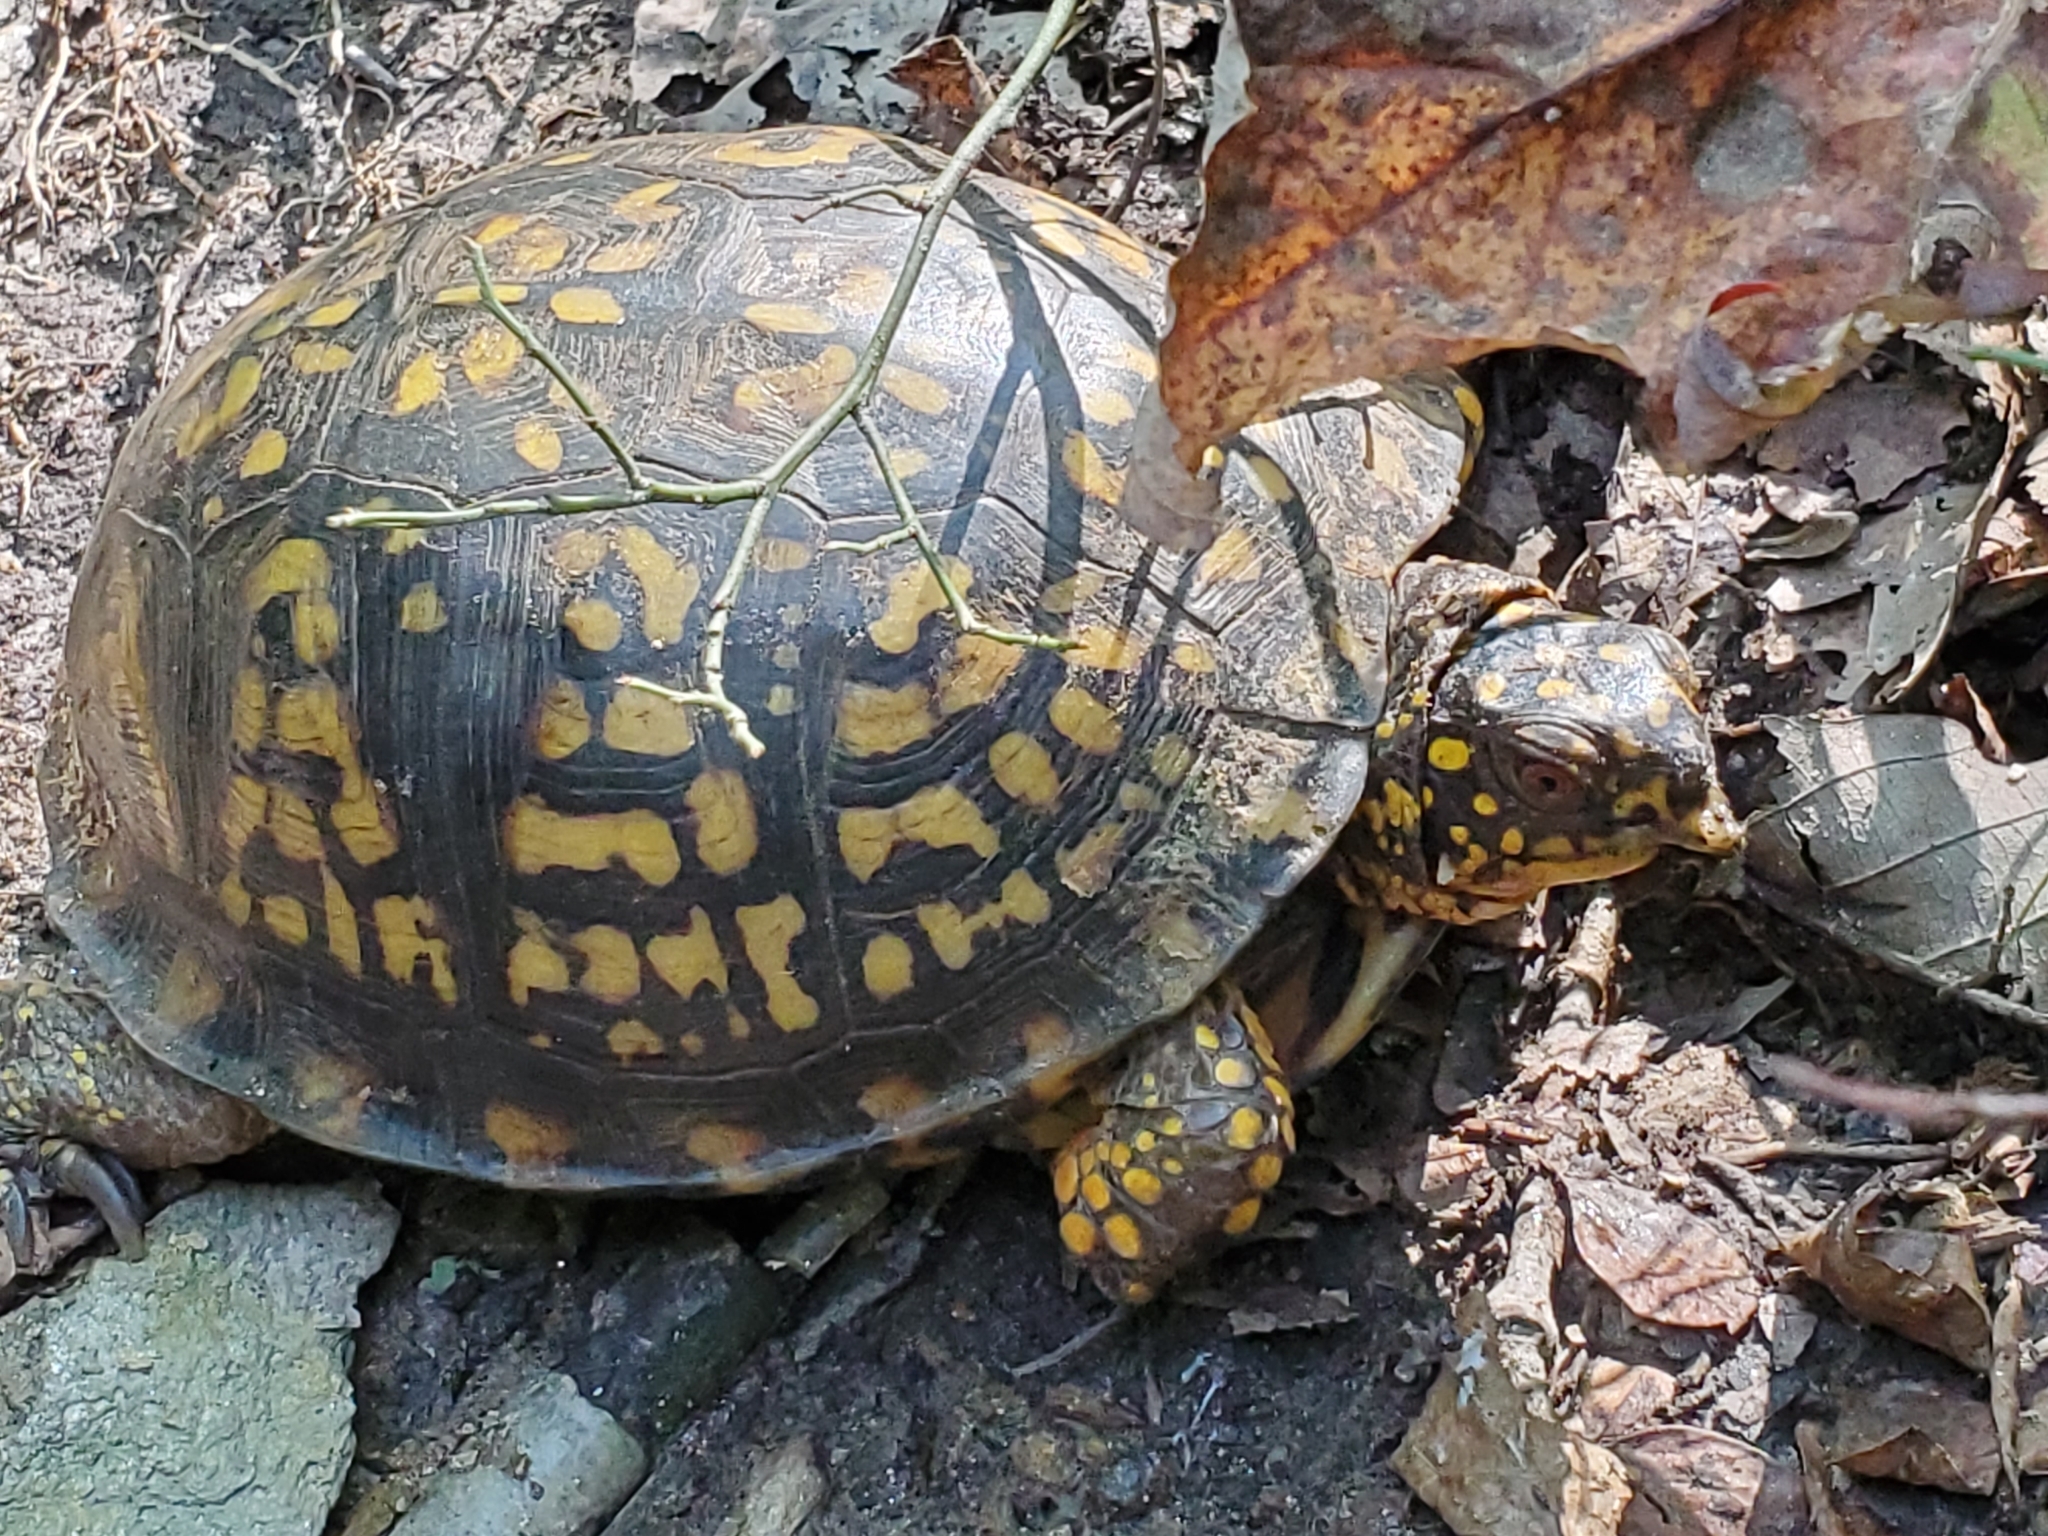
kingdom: Animalia
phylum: Chordata
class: Testudines
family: Emydidae
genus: Terrapene
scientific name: Terrapene carolina
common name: Common box turtle
